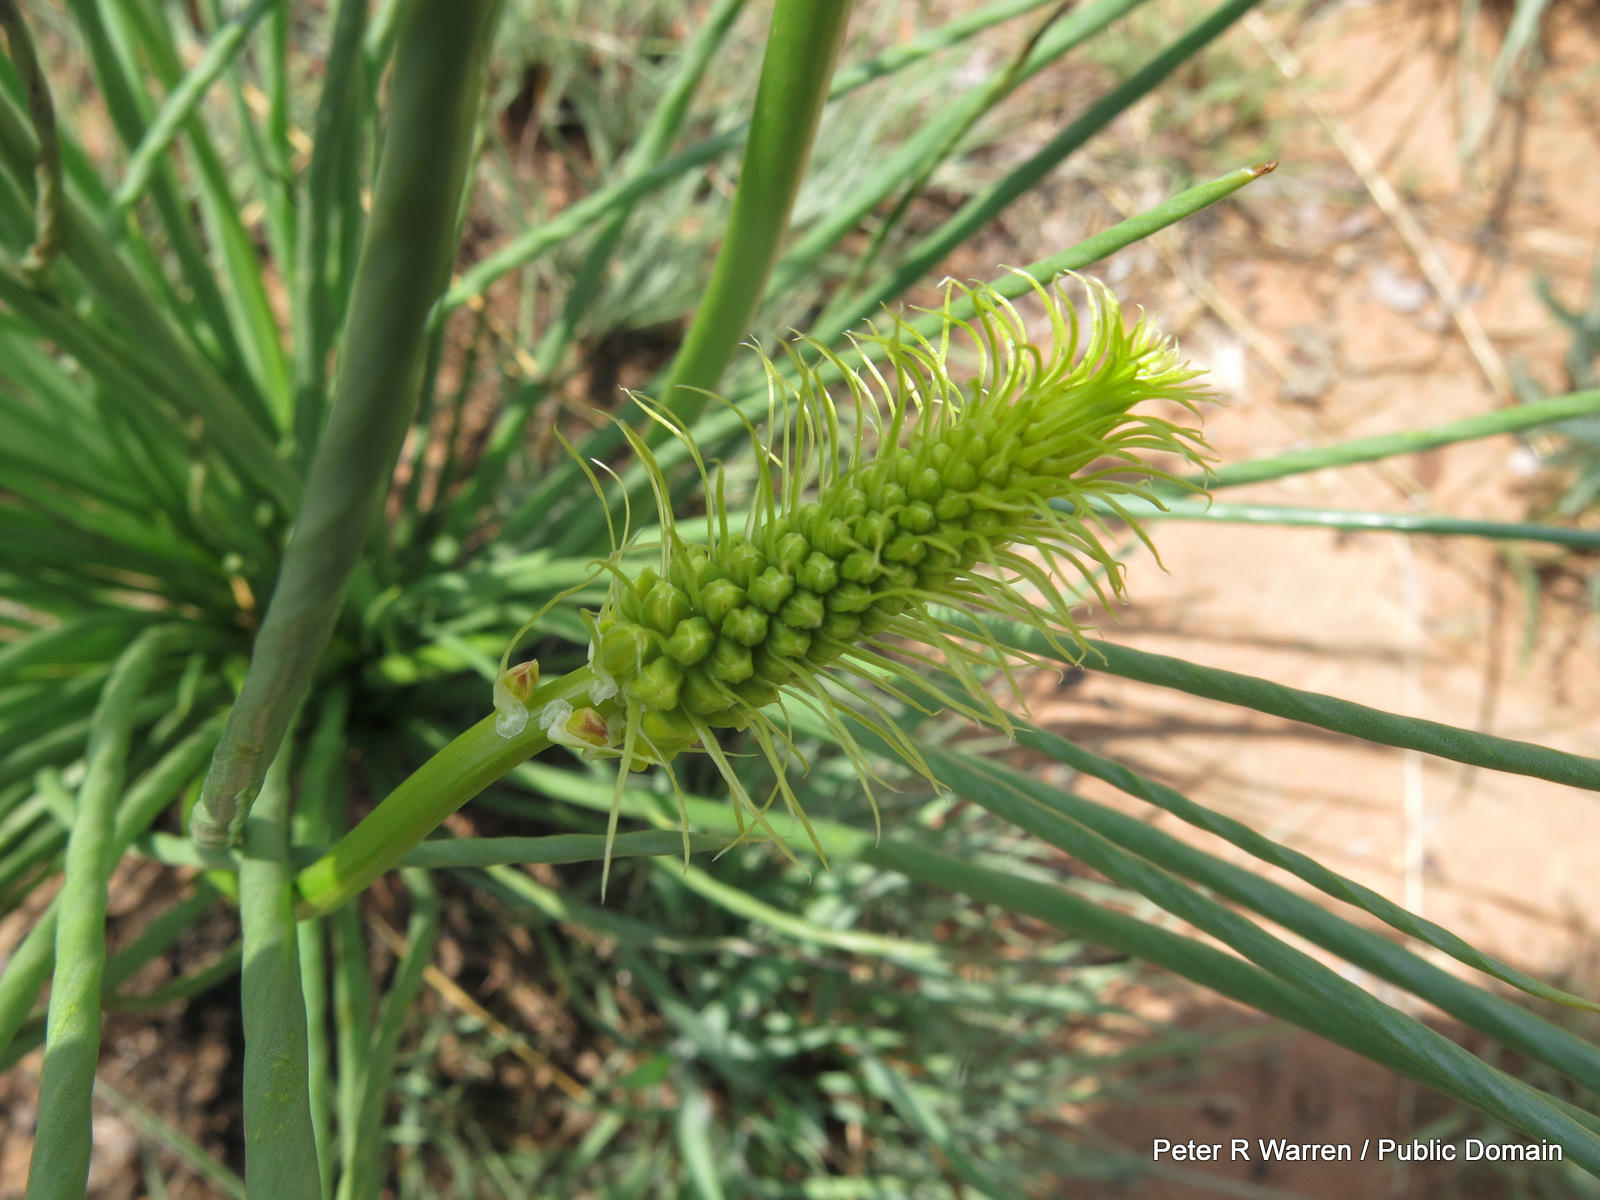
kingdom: Plantae
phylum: Tracheophyta
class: Liliopsida
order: Asparagales
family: Asphodelaceae
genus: Bulbine
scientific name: Bulbine angustifolia
